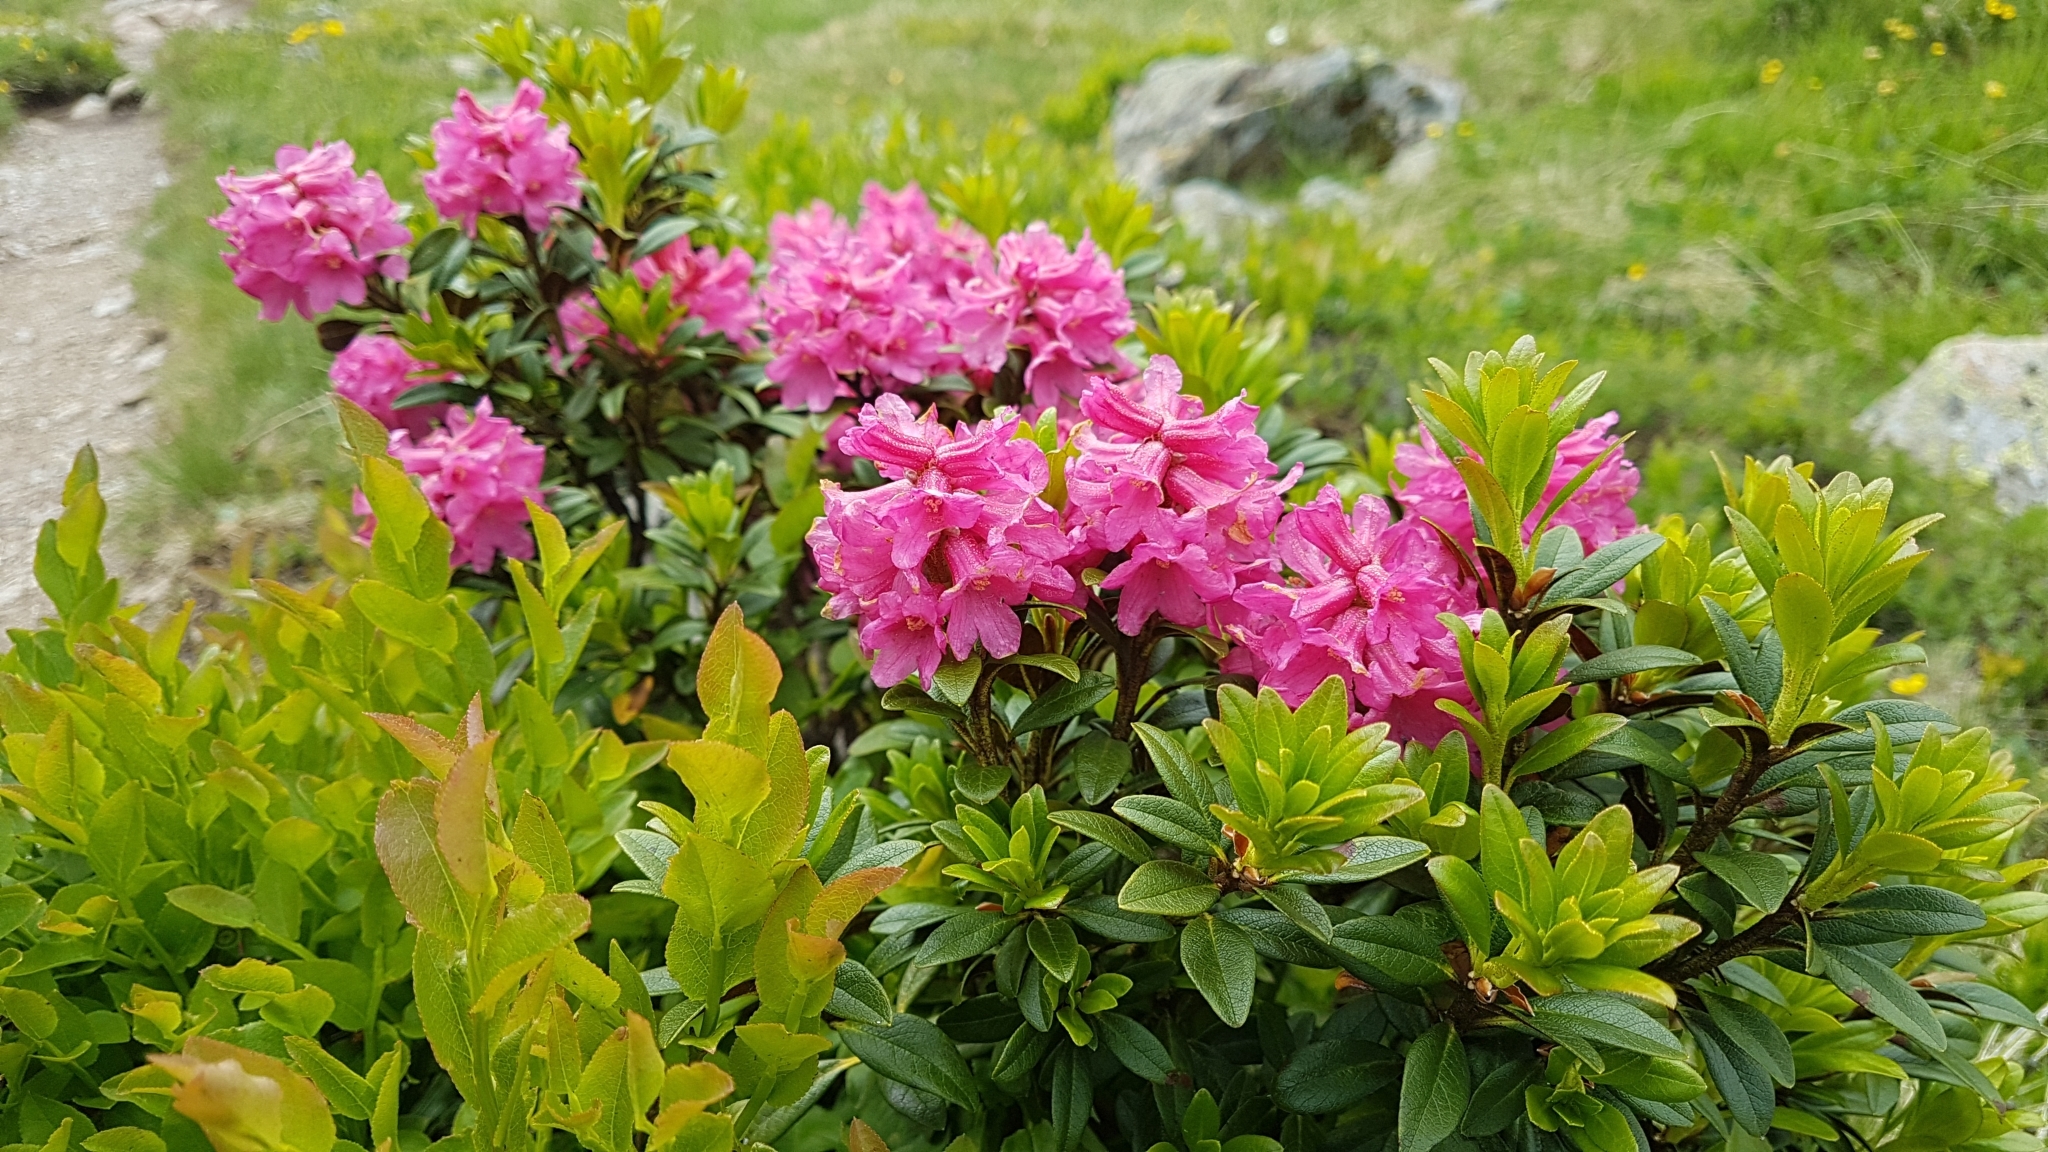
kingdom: Plantae
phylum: Tracheophyta
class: Magnoliopsida
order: Ericales
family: Ericaceae
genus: Rhododendron
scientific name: Rhododendron ferrugineum
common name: Alpenrose
